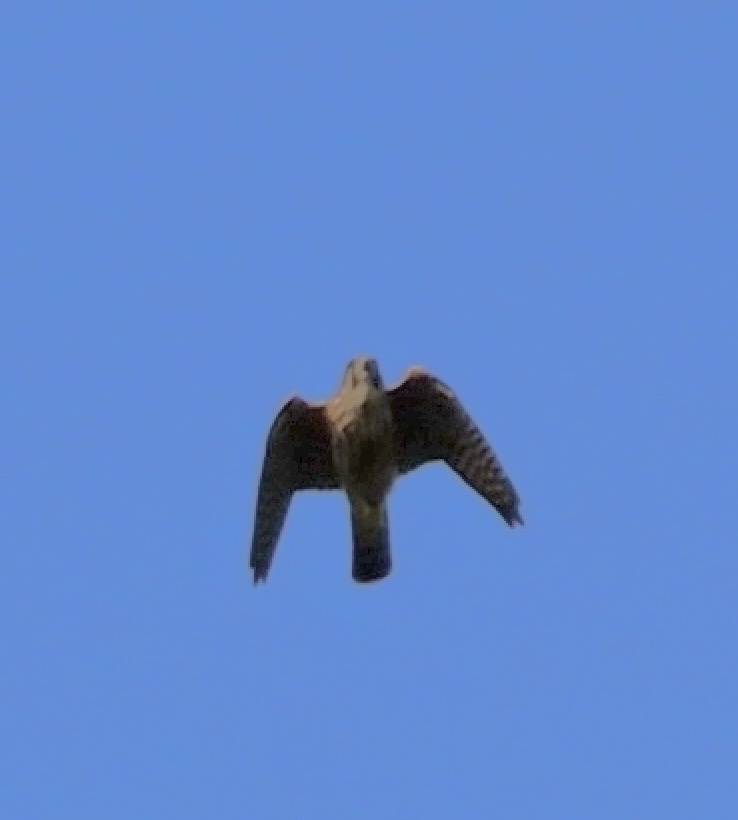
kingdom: Animalia
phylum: Chordata
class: Aves
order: Falconiformes
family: Falconidae
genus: Falco
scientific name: Falco sparverius
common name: American kestrel
